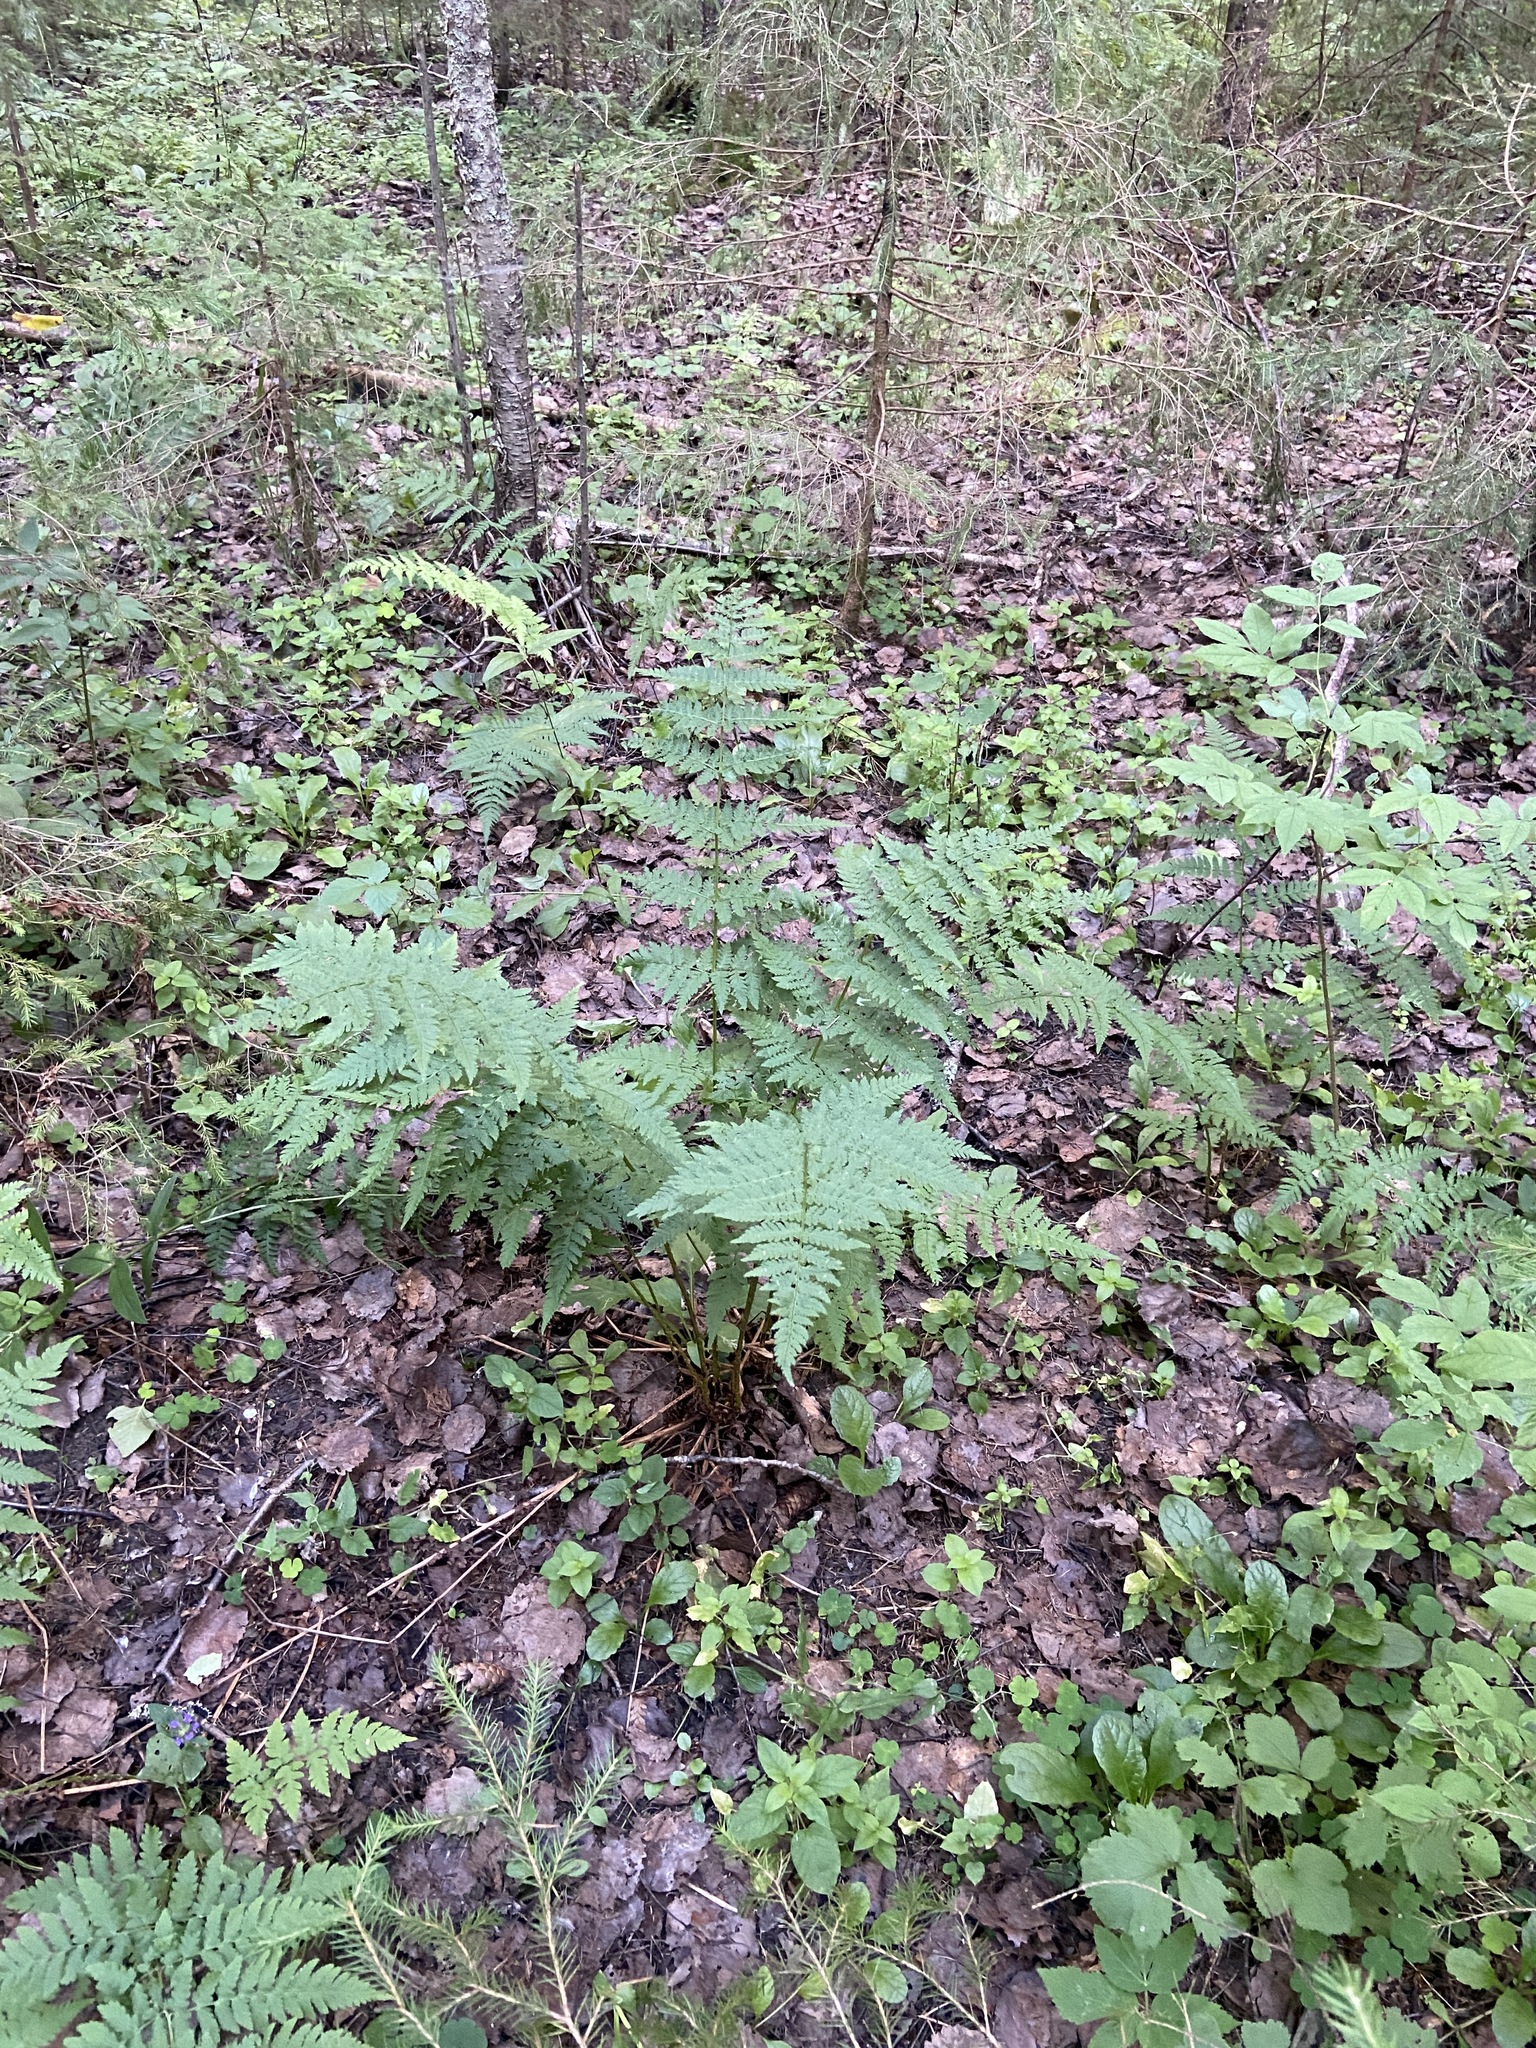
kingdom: Plantae
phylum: Tracheophyta
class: Polypodiopsida
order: Polypodiales
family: Dryopteridaceae
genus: Dryopteris
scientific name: Dryopteris carthusiana
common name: Narrow buckler-fern
